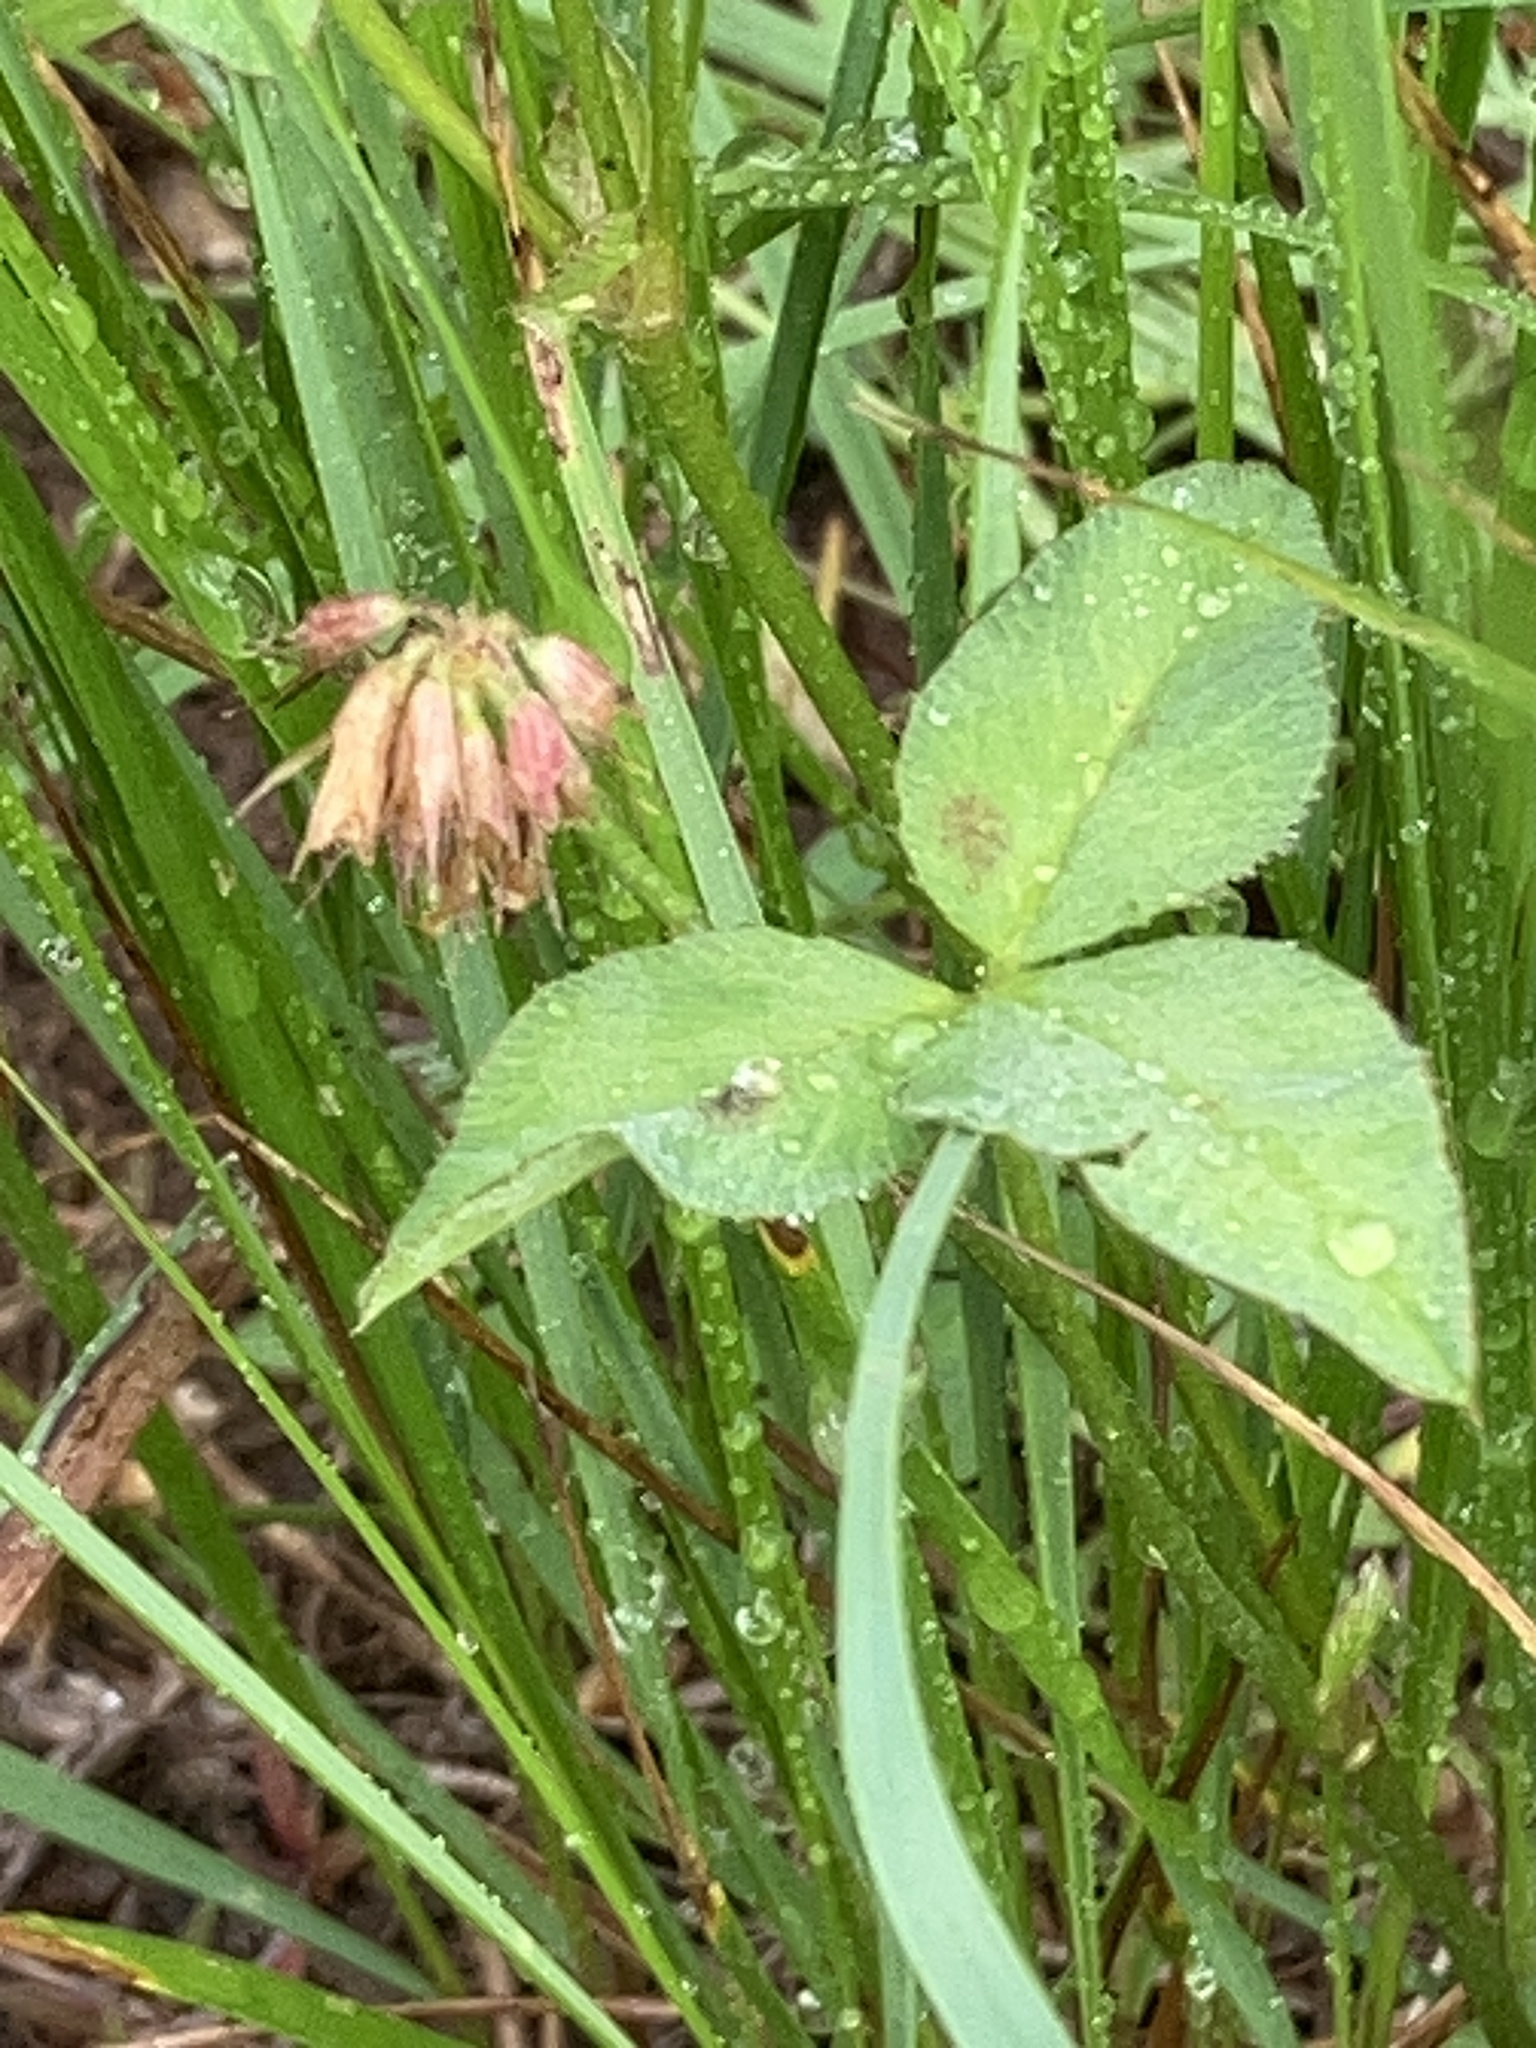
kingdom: Plantae
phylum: Tracheophyta
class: Magnoliopsida
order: Fabales
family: Fabaceae
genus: Trifolium
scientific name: Trifolium latifolium
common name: Broadleaf clover
